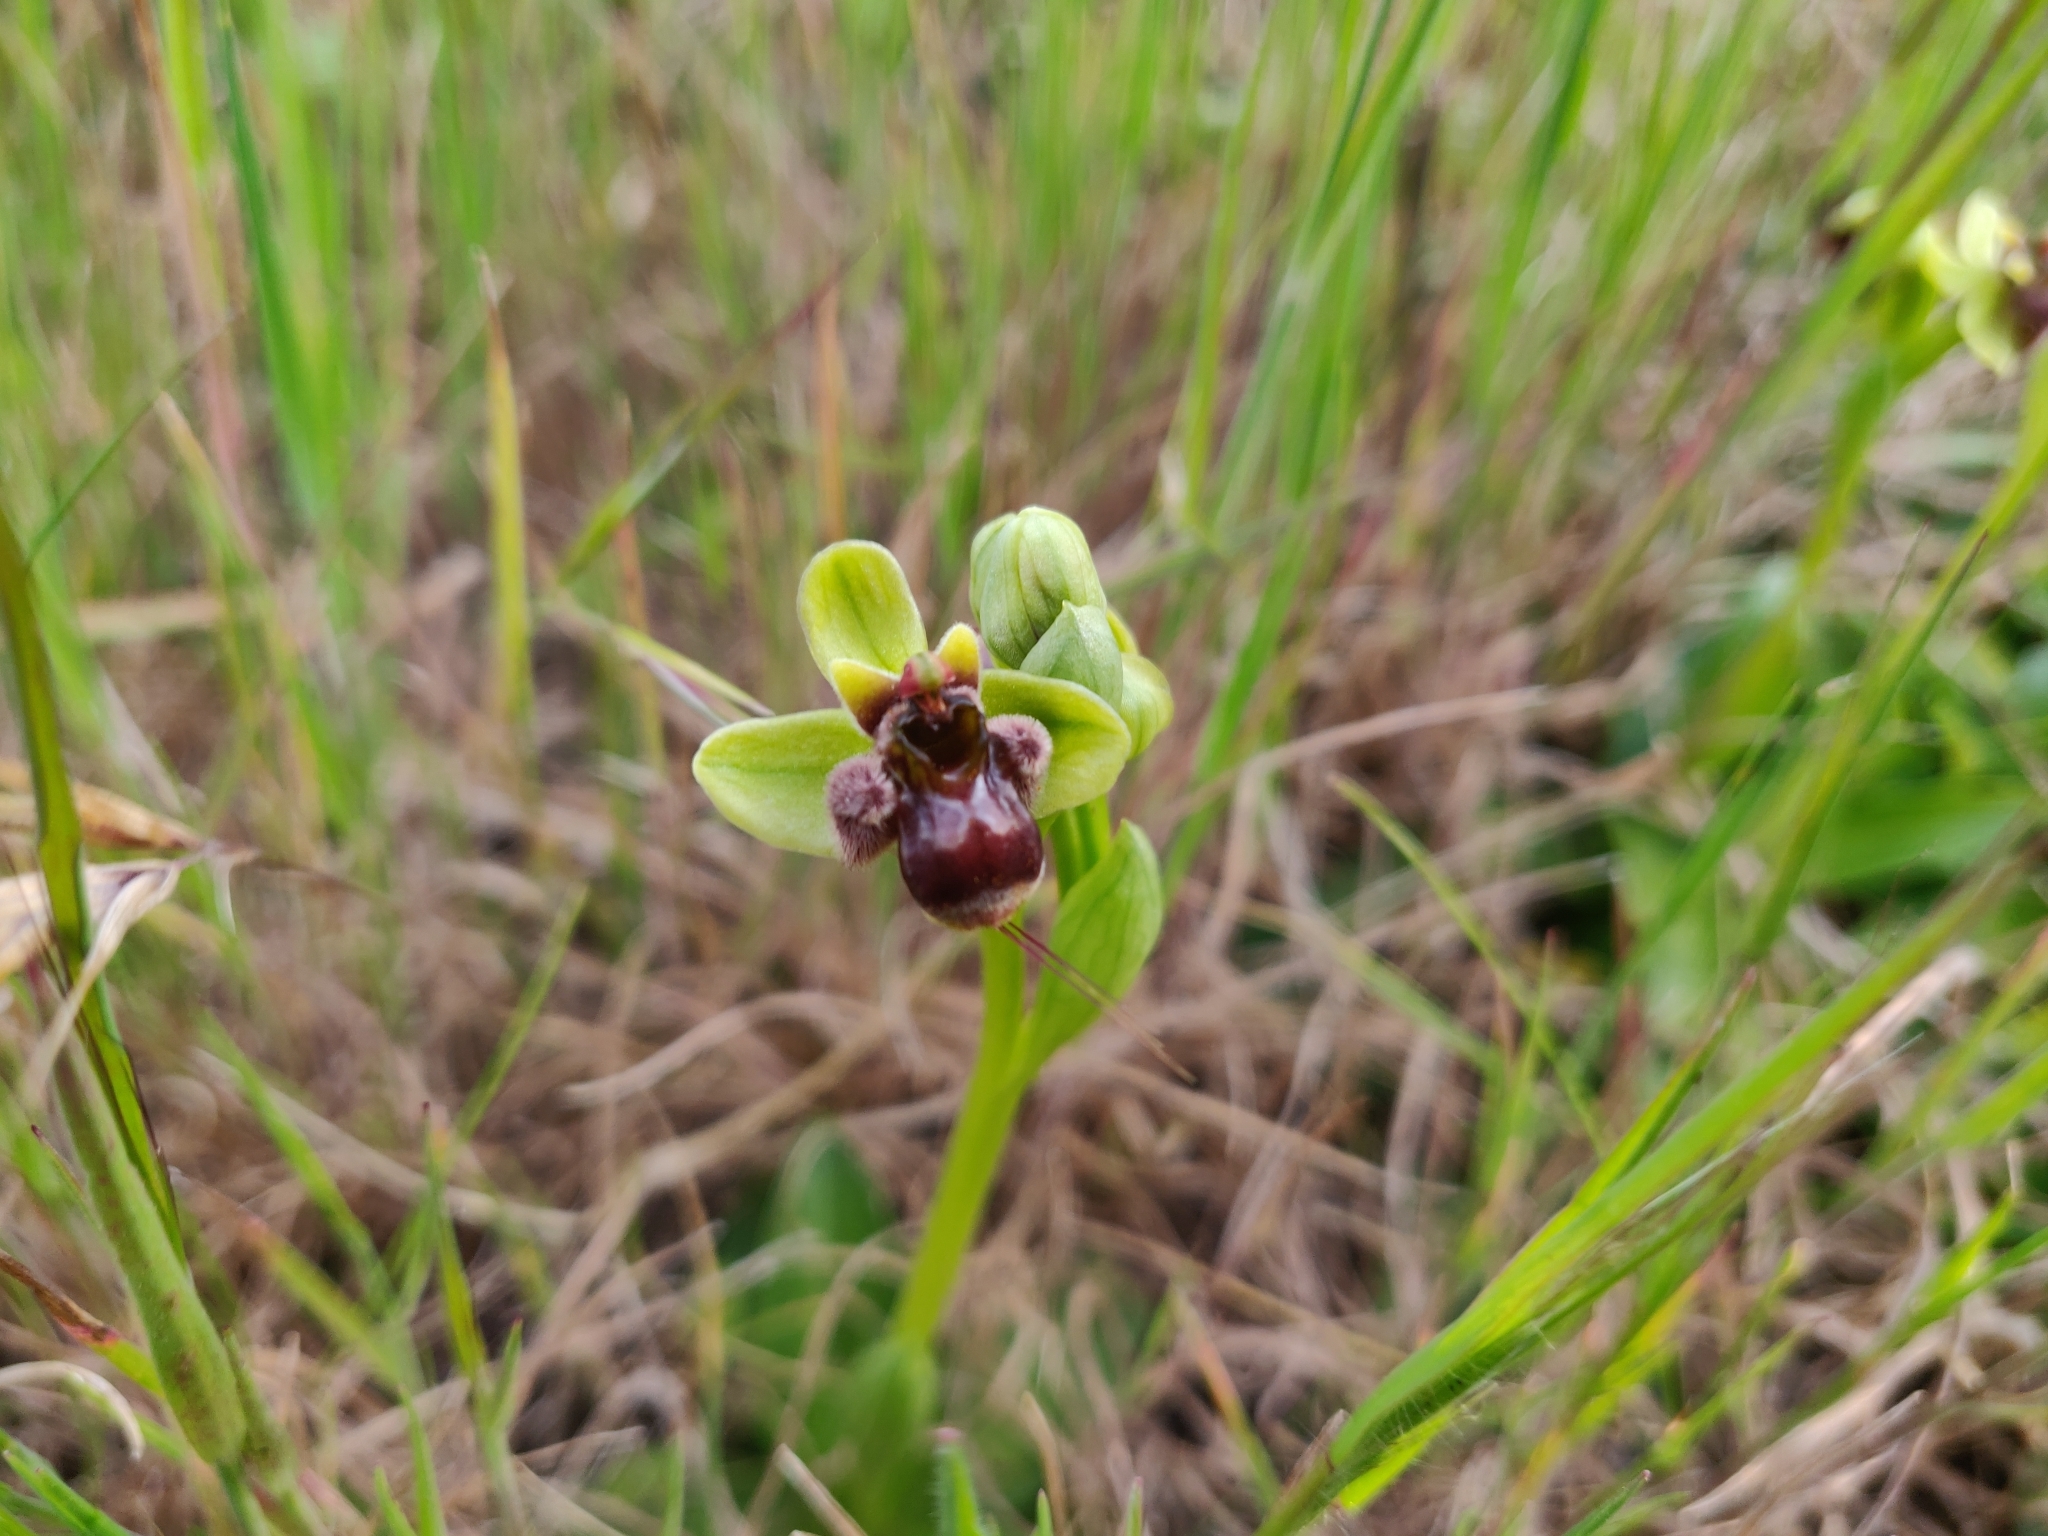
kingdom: Plantae
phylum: Tracheophyta
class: Liliopsida
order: Asparagales
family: Orchidaceae
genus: Ophrys
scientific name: Ophrys bombyliflora
